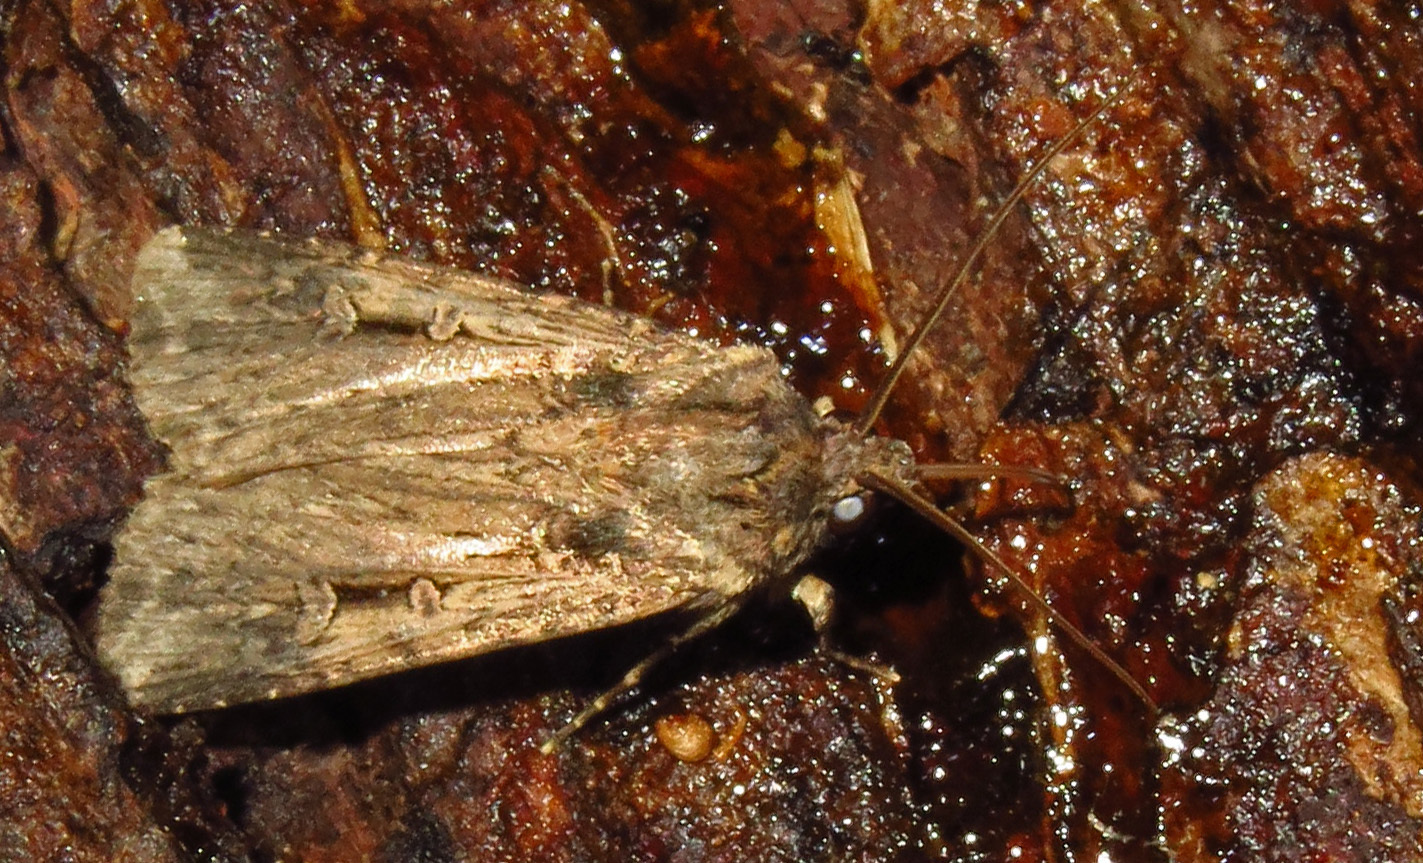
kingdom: Animalia
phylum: Arthropoda
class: Insecta
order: Lepidoptera
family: Noctuidae
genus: Feltia
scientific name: Feltia subterranea
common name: Granulate cutworm
